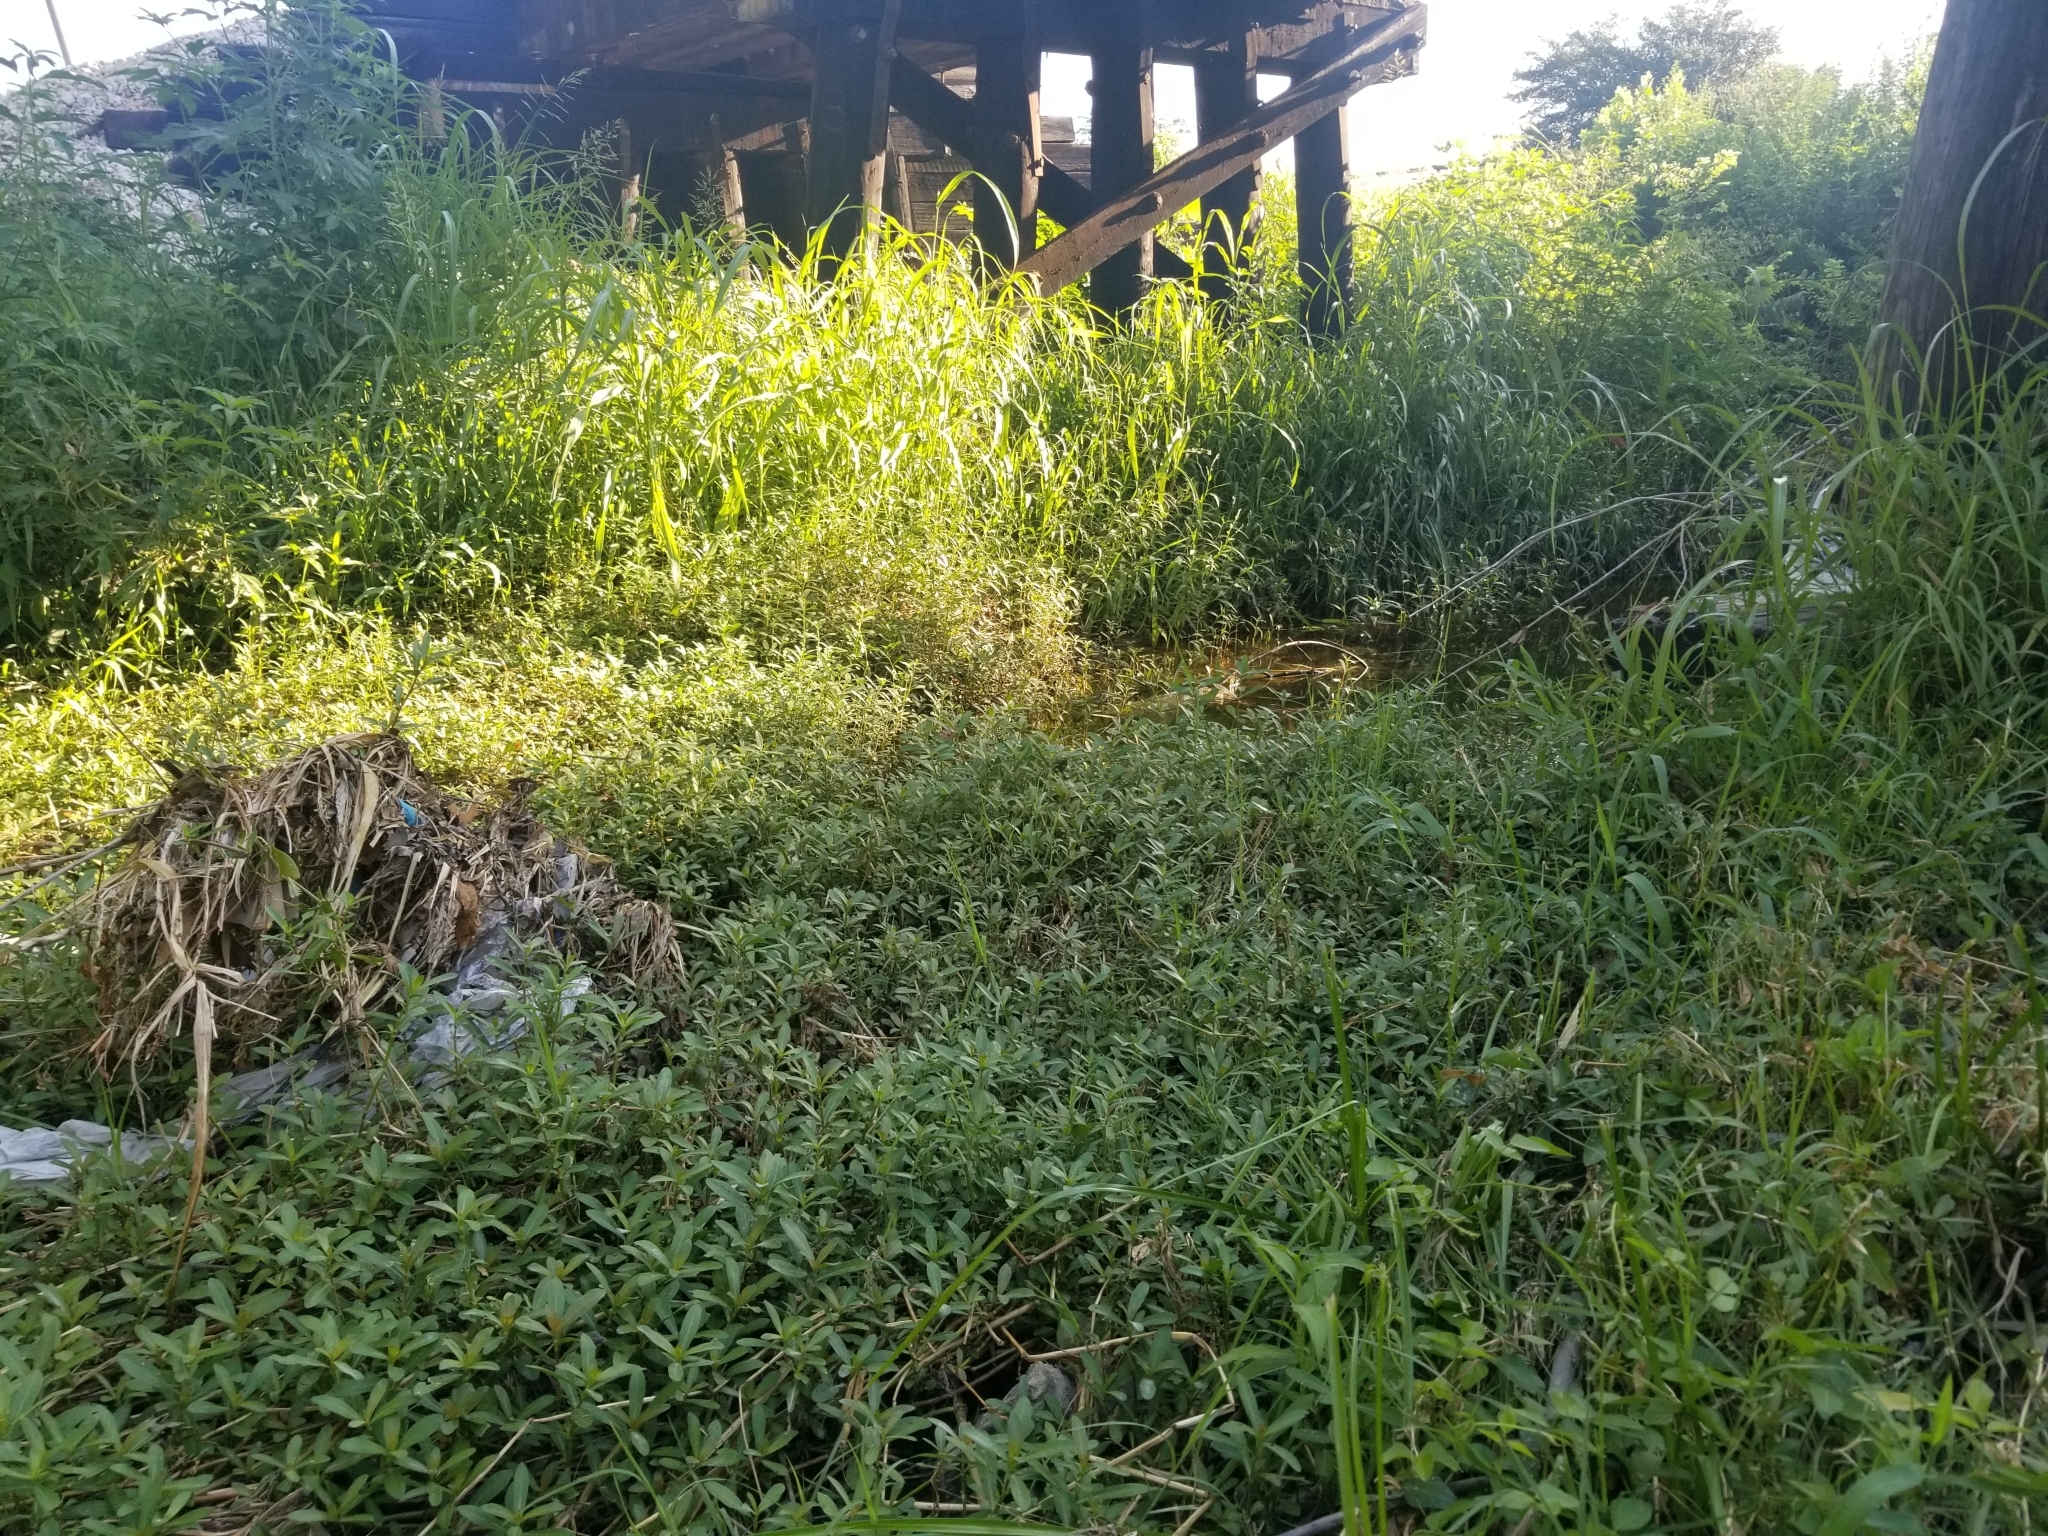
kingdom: Plantae
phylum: Tracheophyta
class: Magnoliopsida
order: Caryophyllales
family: Amaranthaceae
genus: Alternanthera
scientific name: Alternanthera philoxeroides
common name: Alligatorweed
